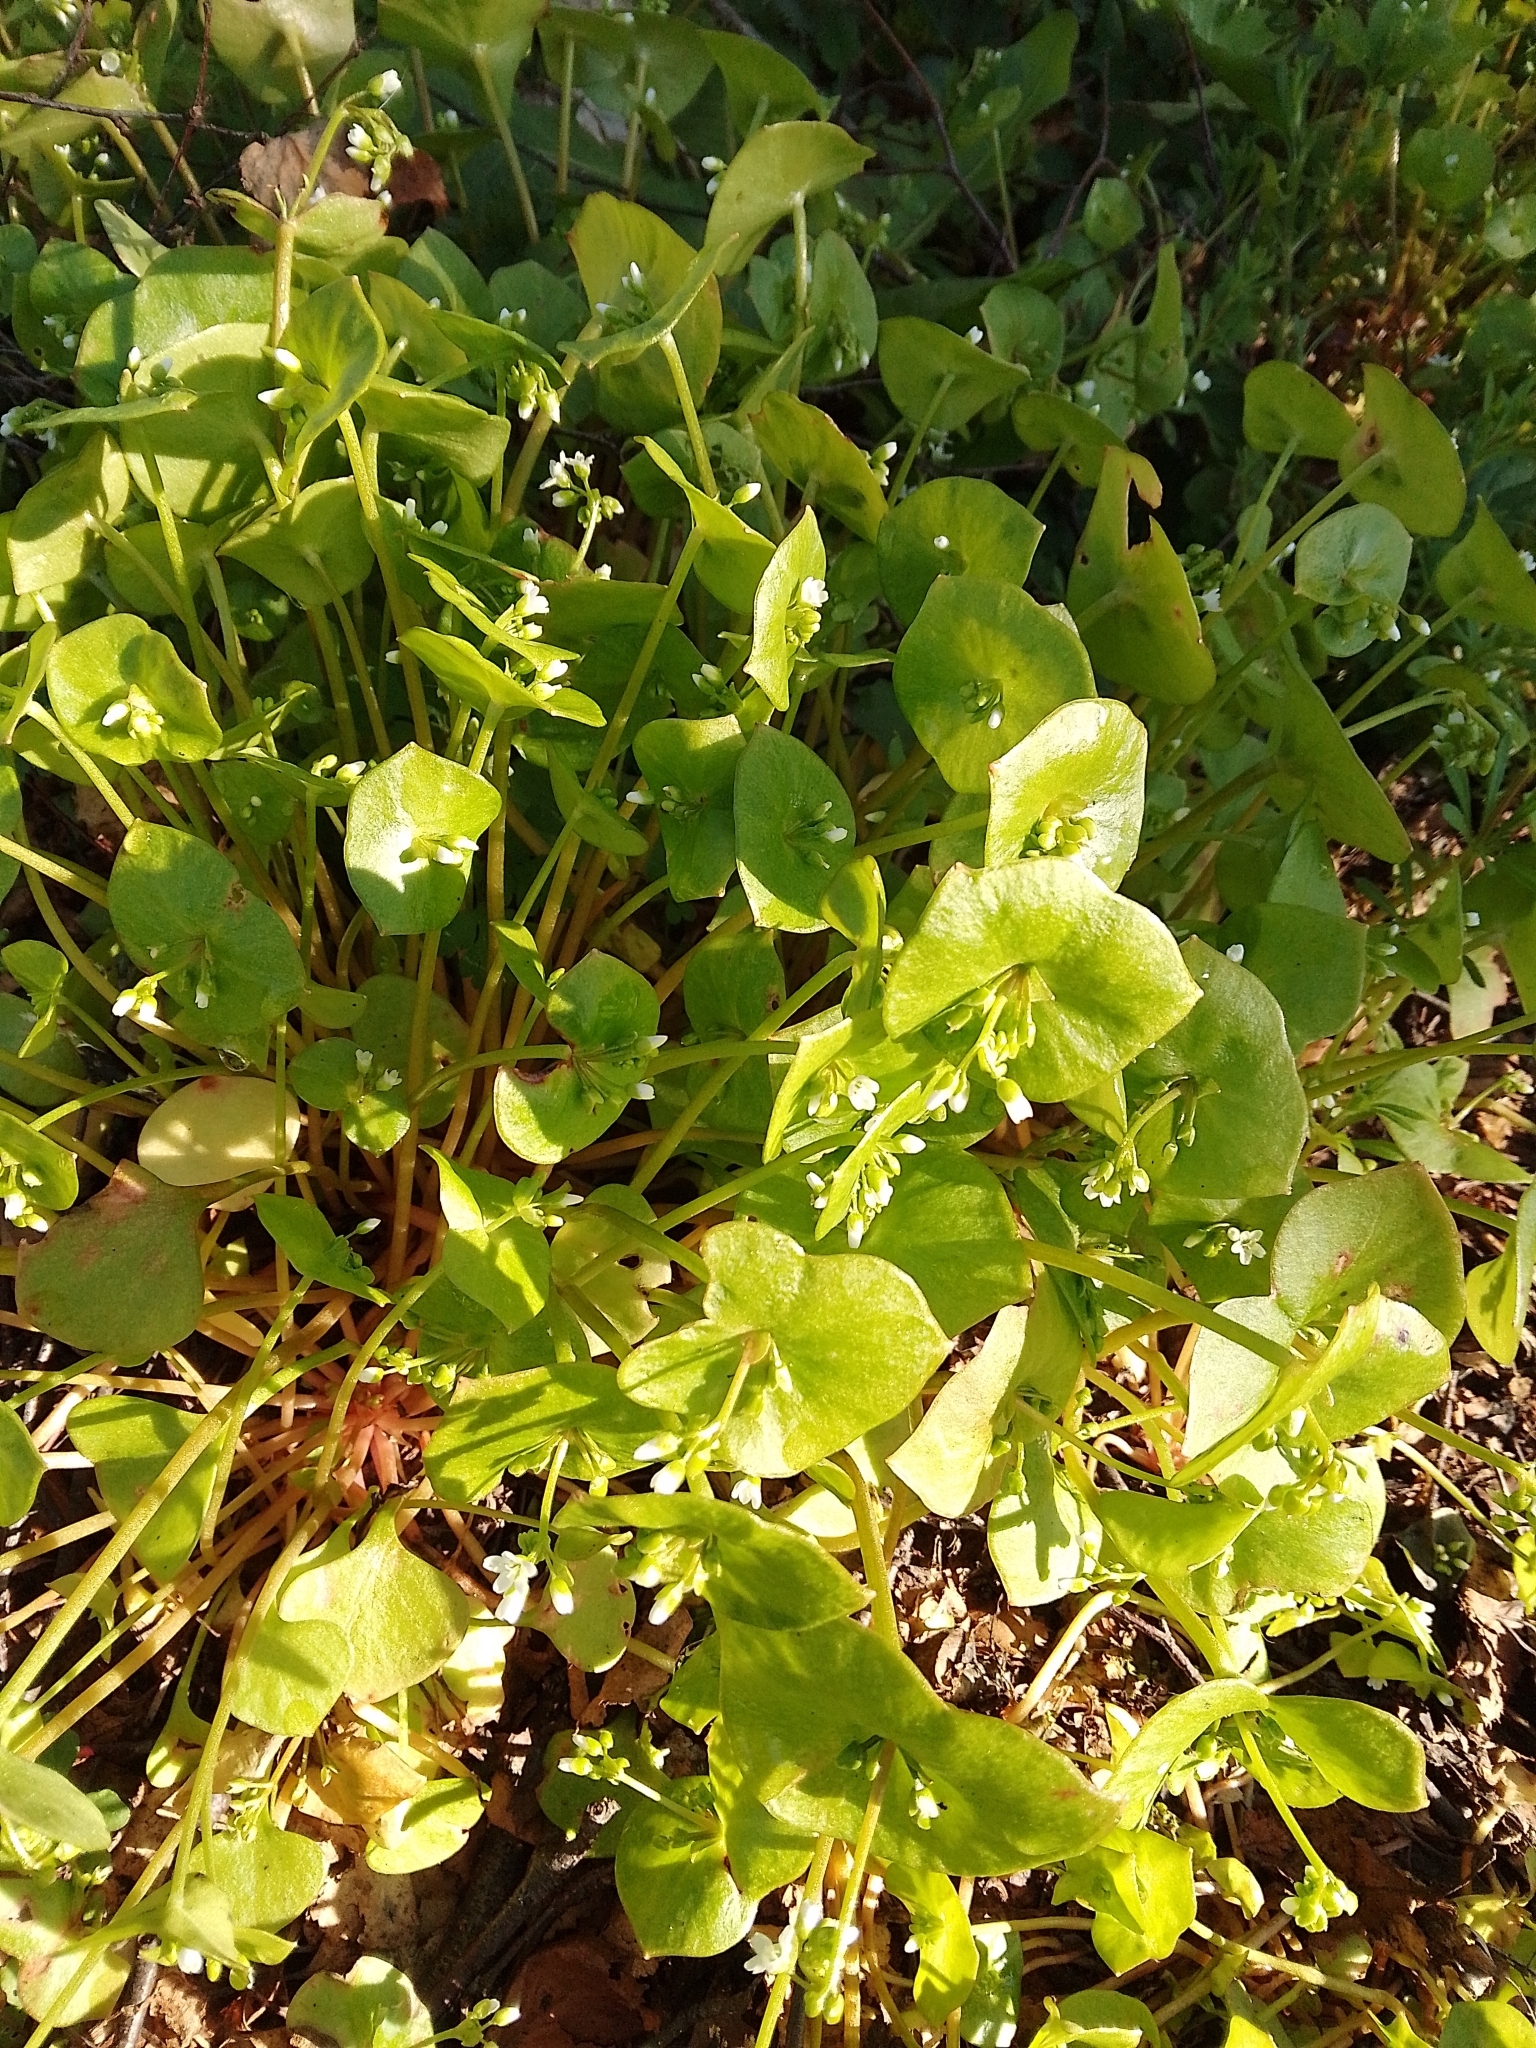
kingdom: Plantae
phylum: Tracheophyta
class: Magnoliopsida
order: Caryophyllales
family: Montiaceae
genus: Claytonia
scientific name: Claytonia perfoliata
